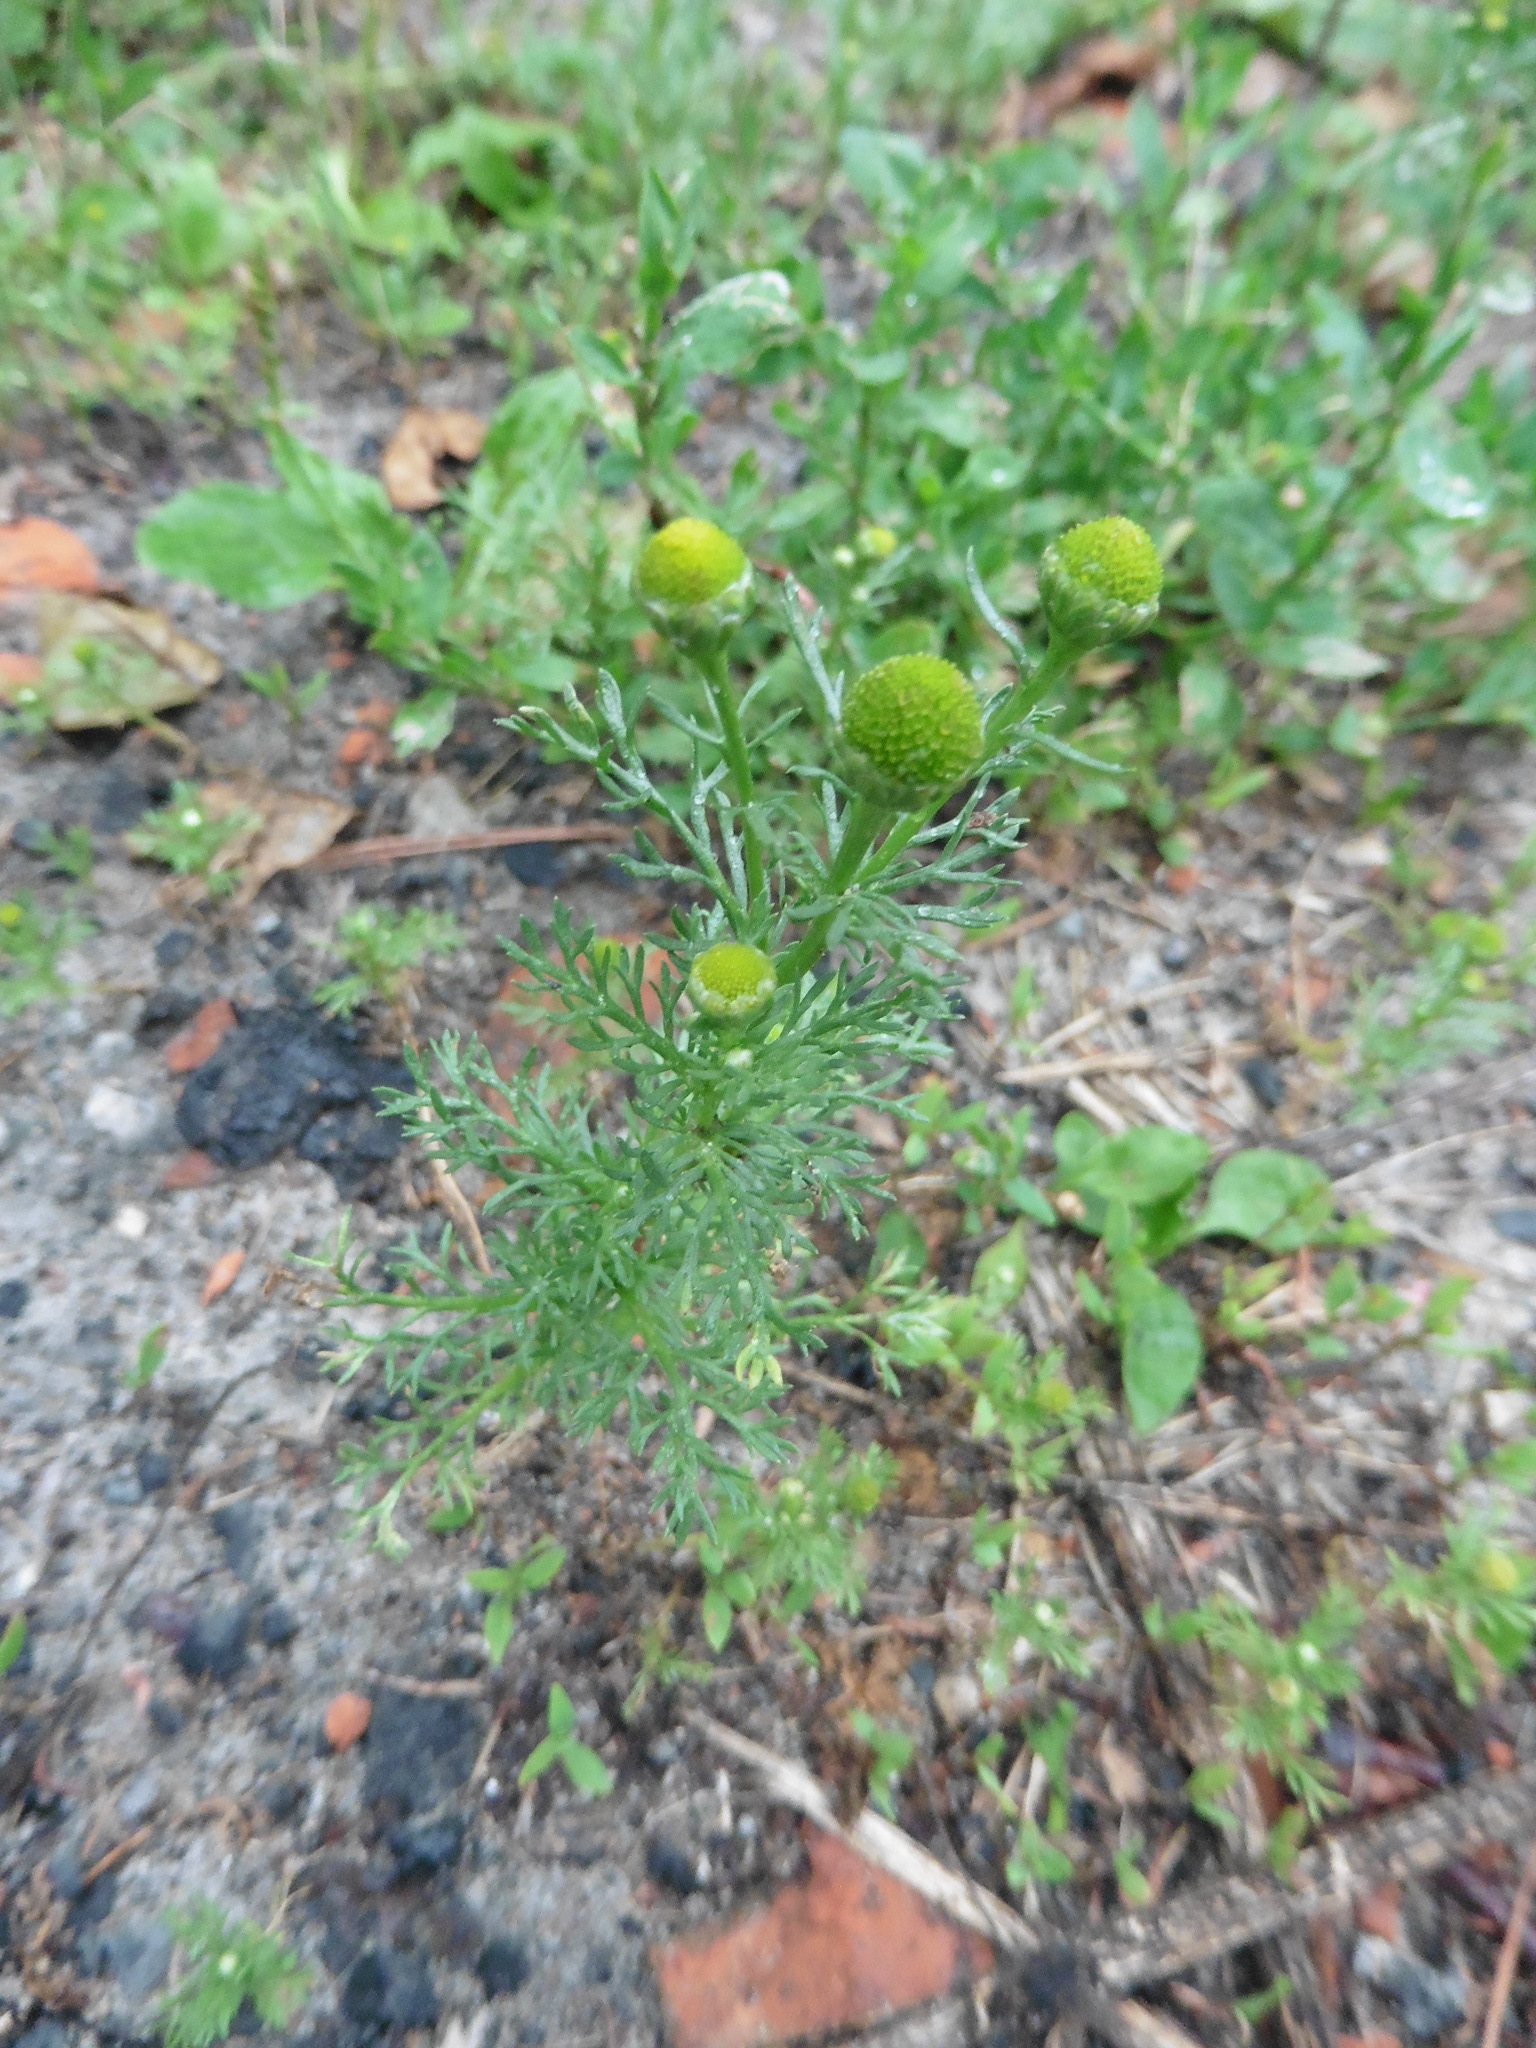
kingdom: Plantae
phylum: Tracheophyta
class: Magnoliopsida
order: Asterales
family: Asteraceae
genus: Matricaria
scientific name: Matricaria discoidea
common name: Disc mayweed
